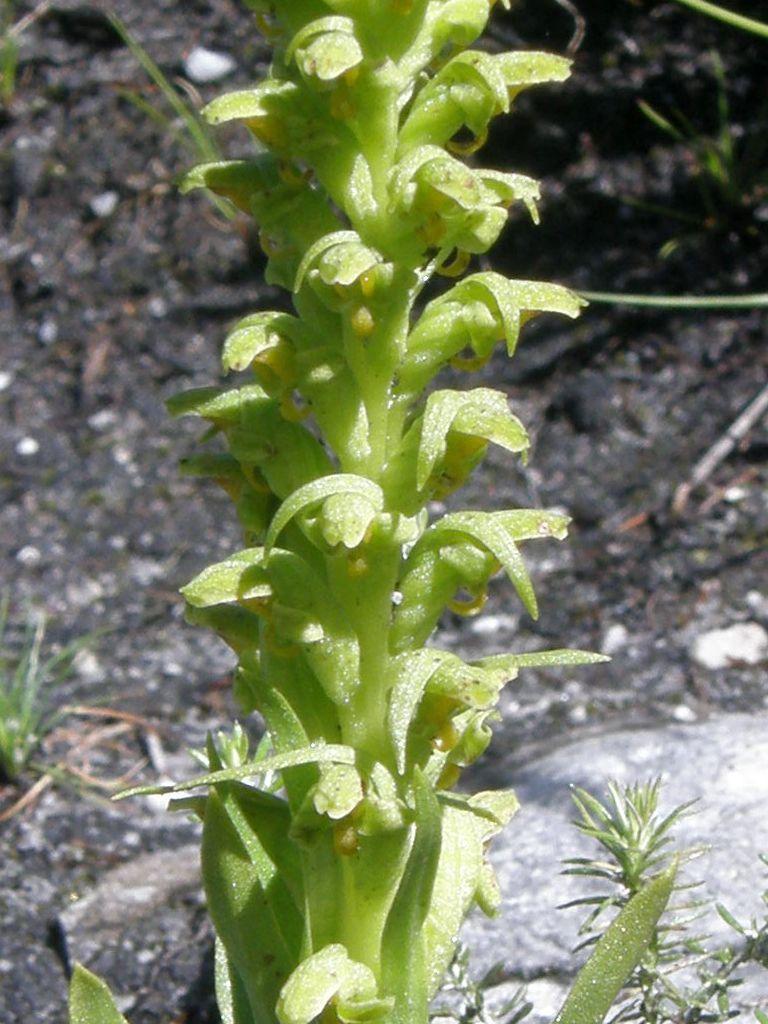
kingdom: Plantae
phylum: Tracheophyta
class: Liliopsida
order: Asparagales
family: Orchidaceae
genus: Disa
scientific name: Disa cylindrica
